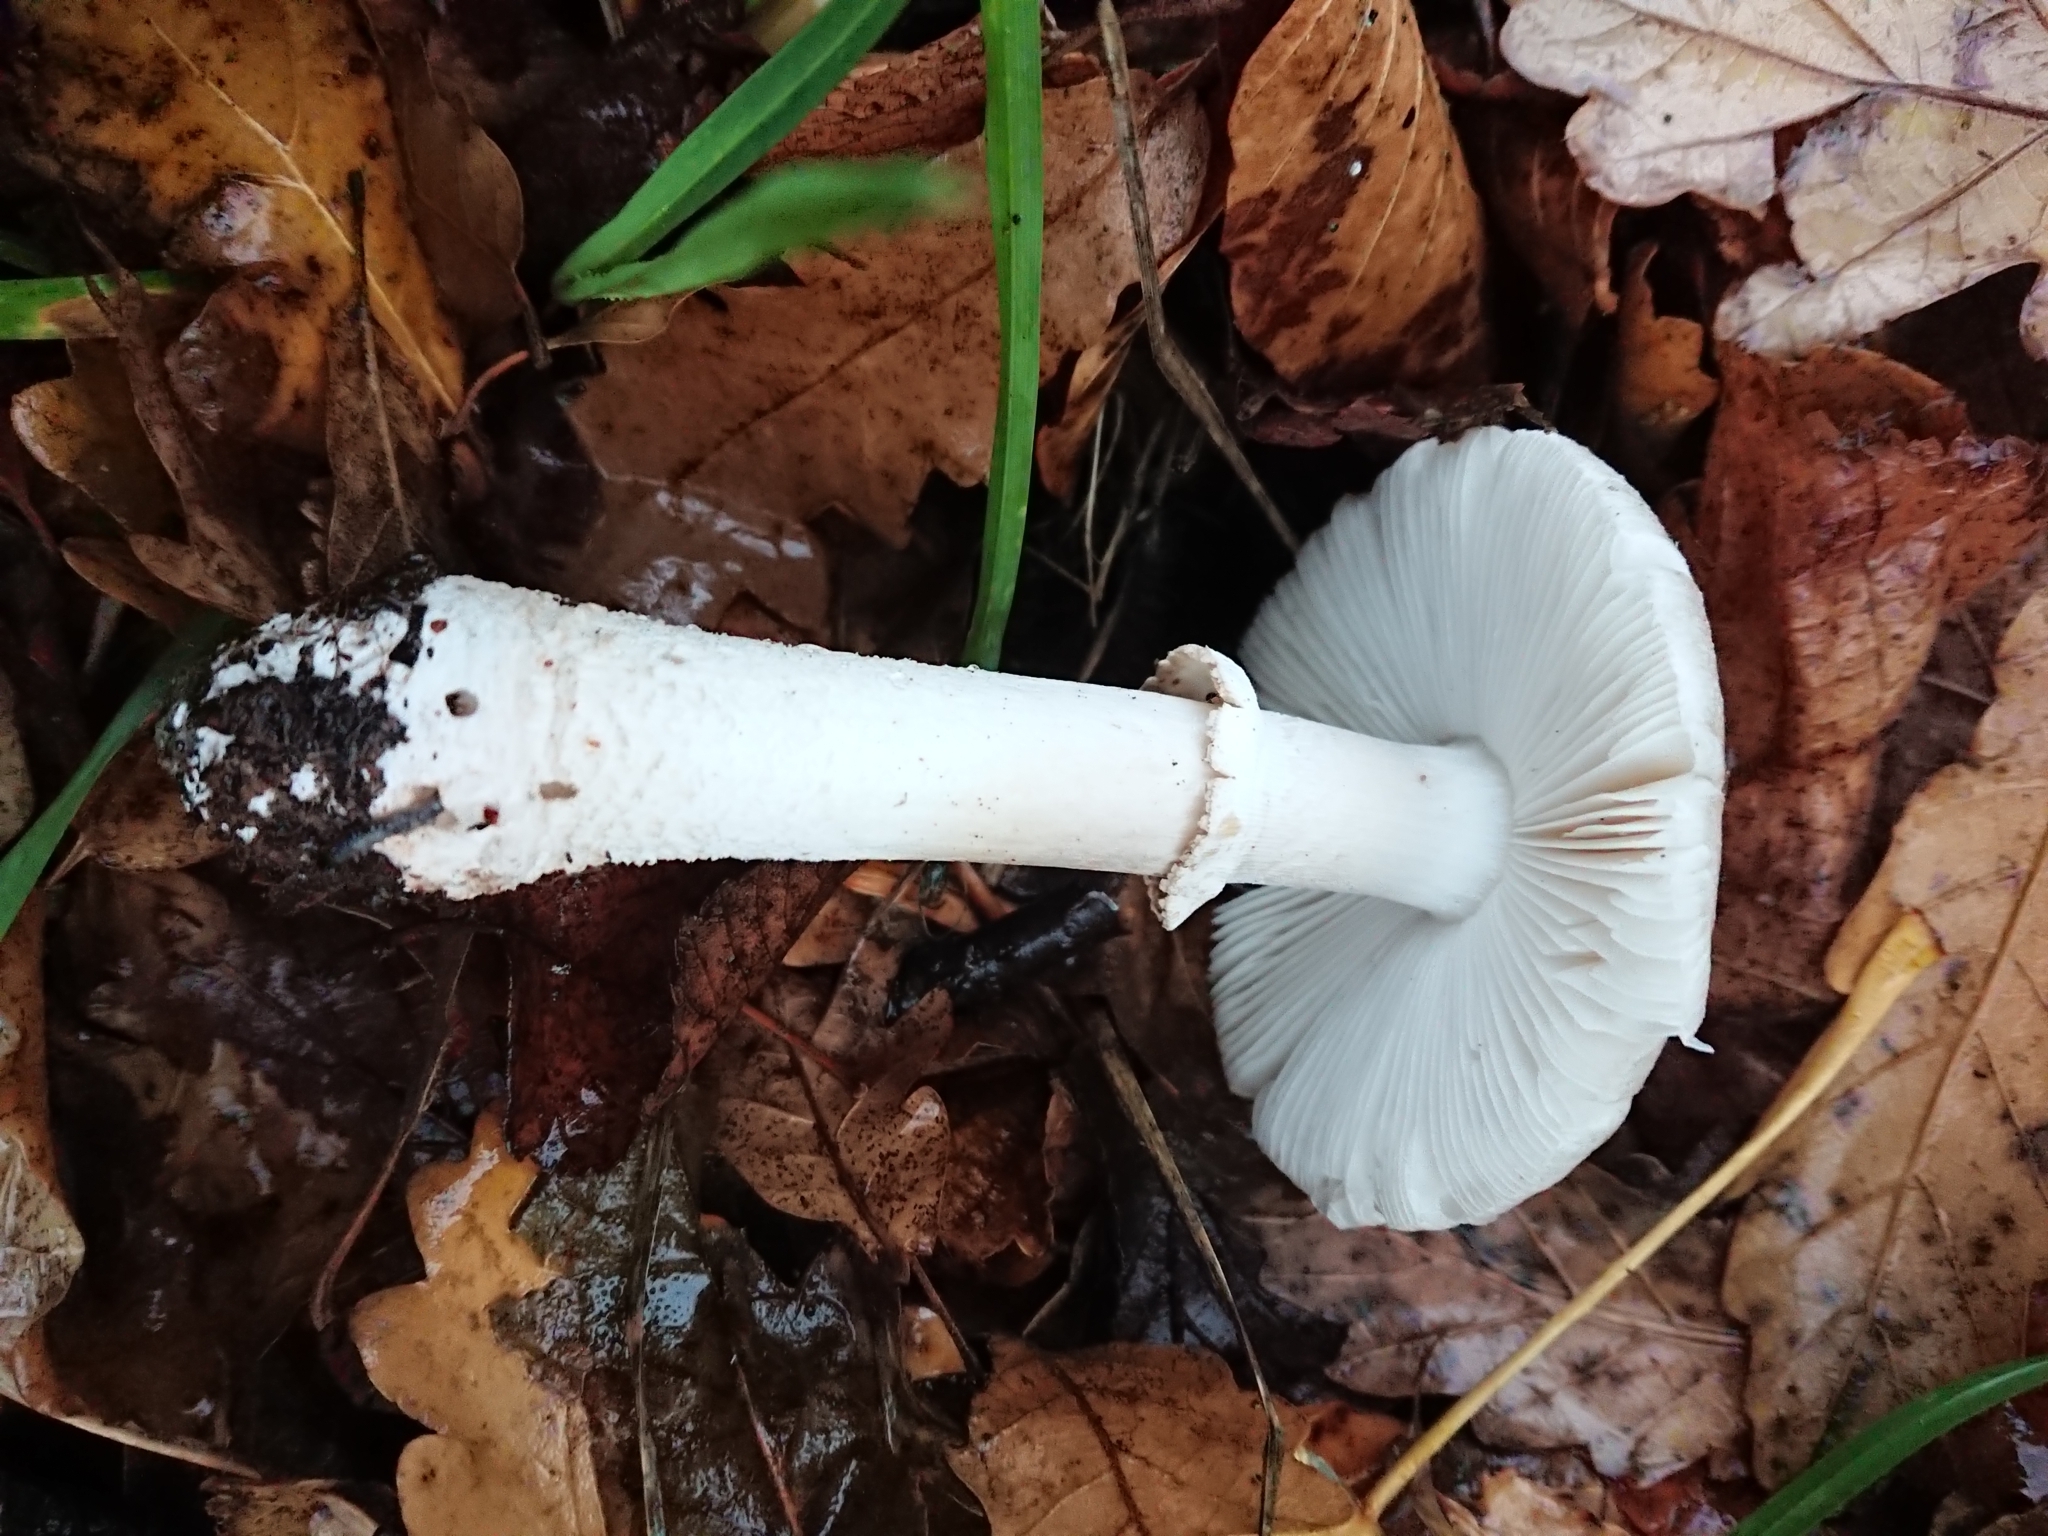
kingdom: Fungi
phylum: Basidiomycota
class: Agaricomycetes
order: Agaricales
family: Amanitaceae
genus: Amanita
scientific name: Amanita excelsa
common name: European false blusher
